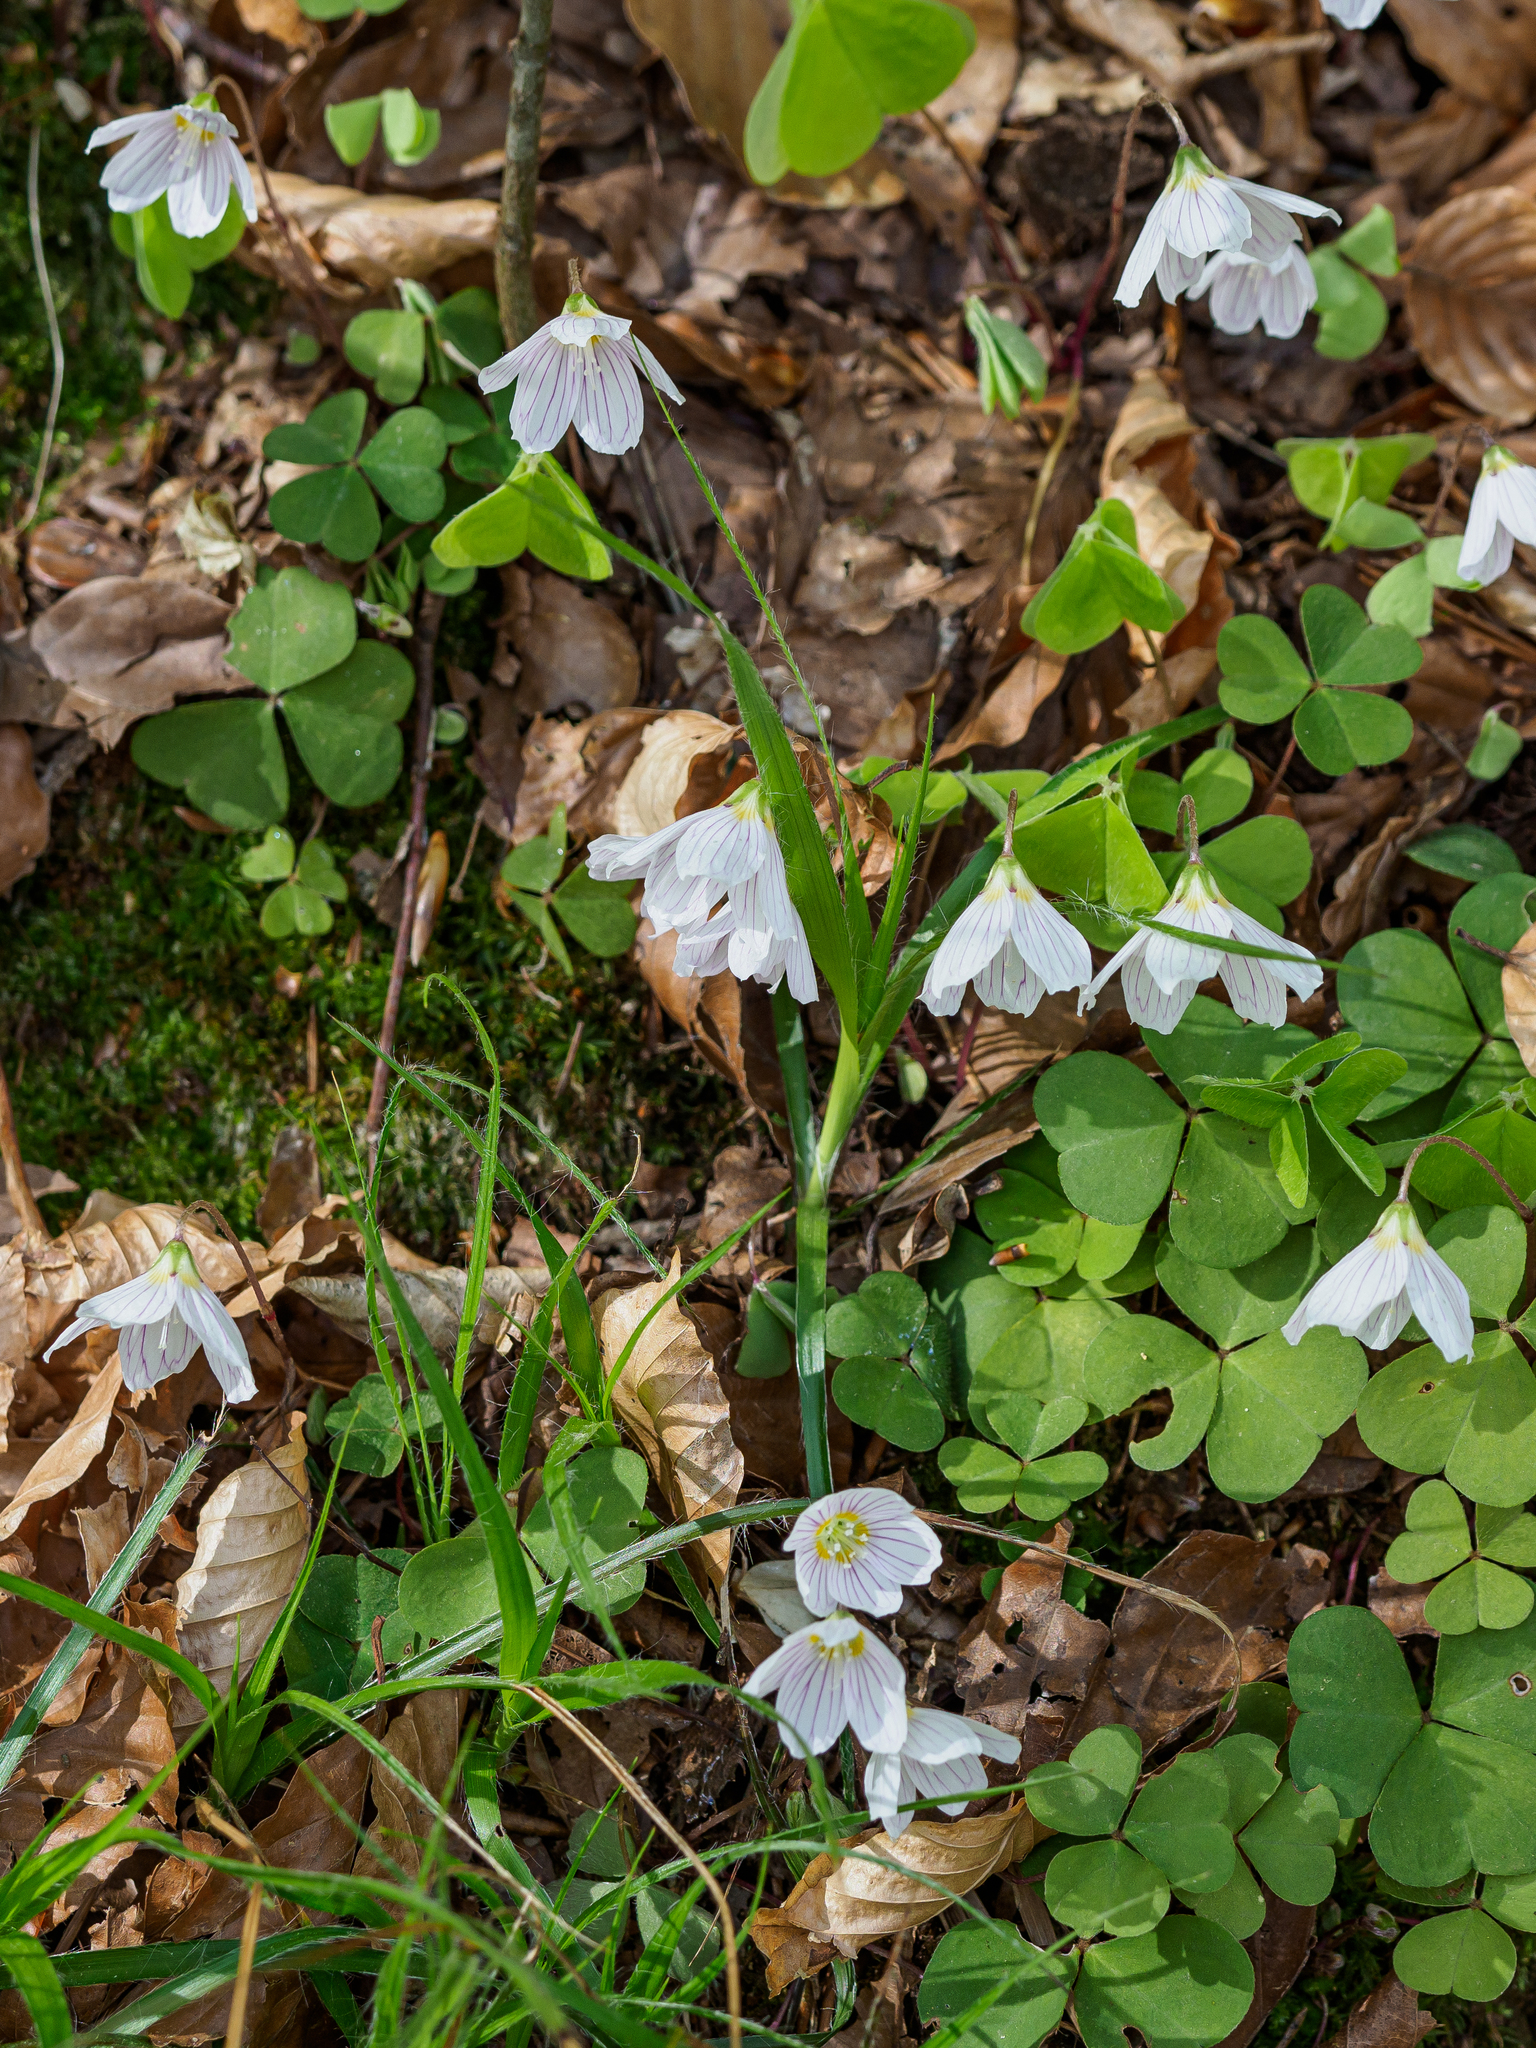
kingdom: Plantae
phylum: Tracheophyta
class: Magnoliopsida
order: Oxalidales
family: Oxalidaceae
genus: Oxalis
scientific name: Oxalis acetosella
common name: Wood-sorrel
